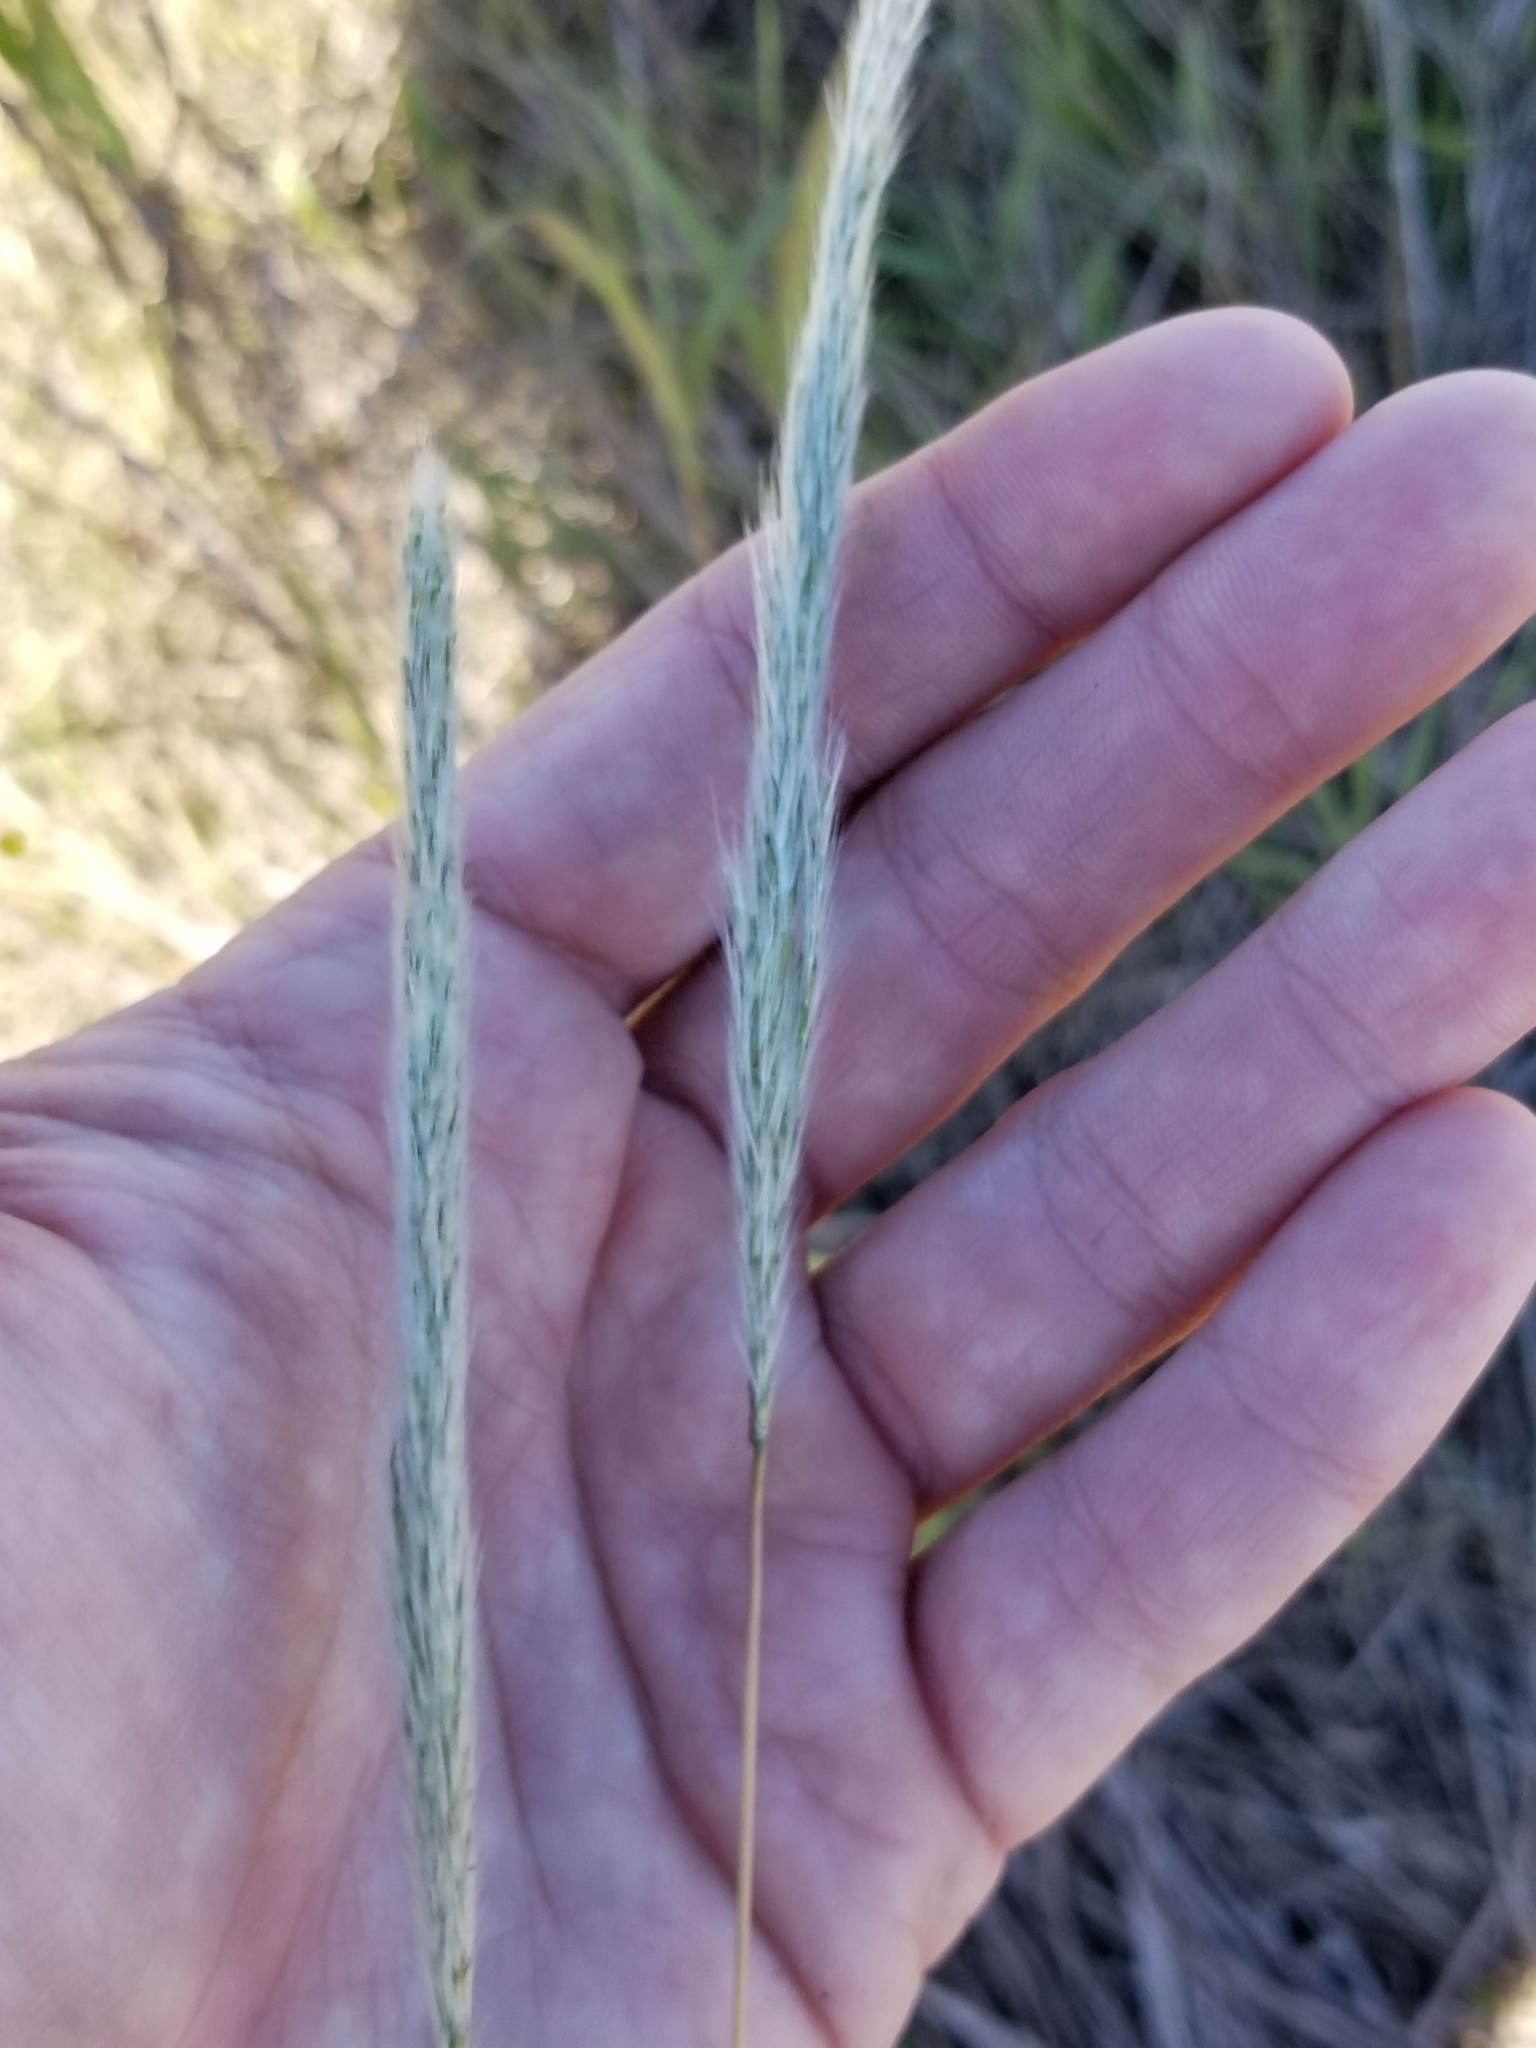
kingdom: Plantae
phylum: Tracheophyta
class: Liliopsida
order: Poales
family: Poaceae
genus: Bothriochloa
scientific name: Bothriochloa torreyana
